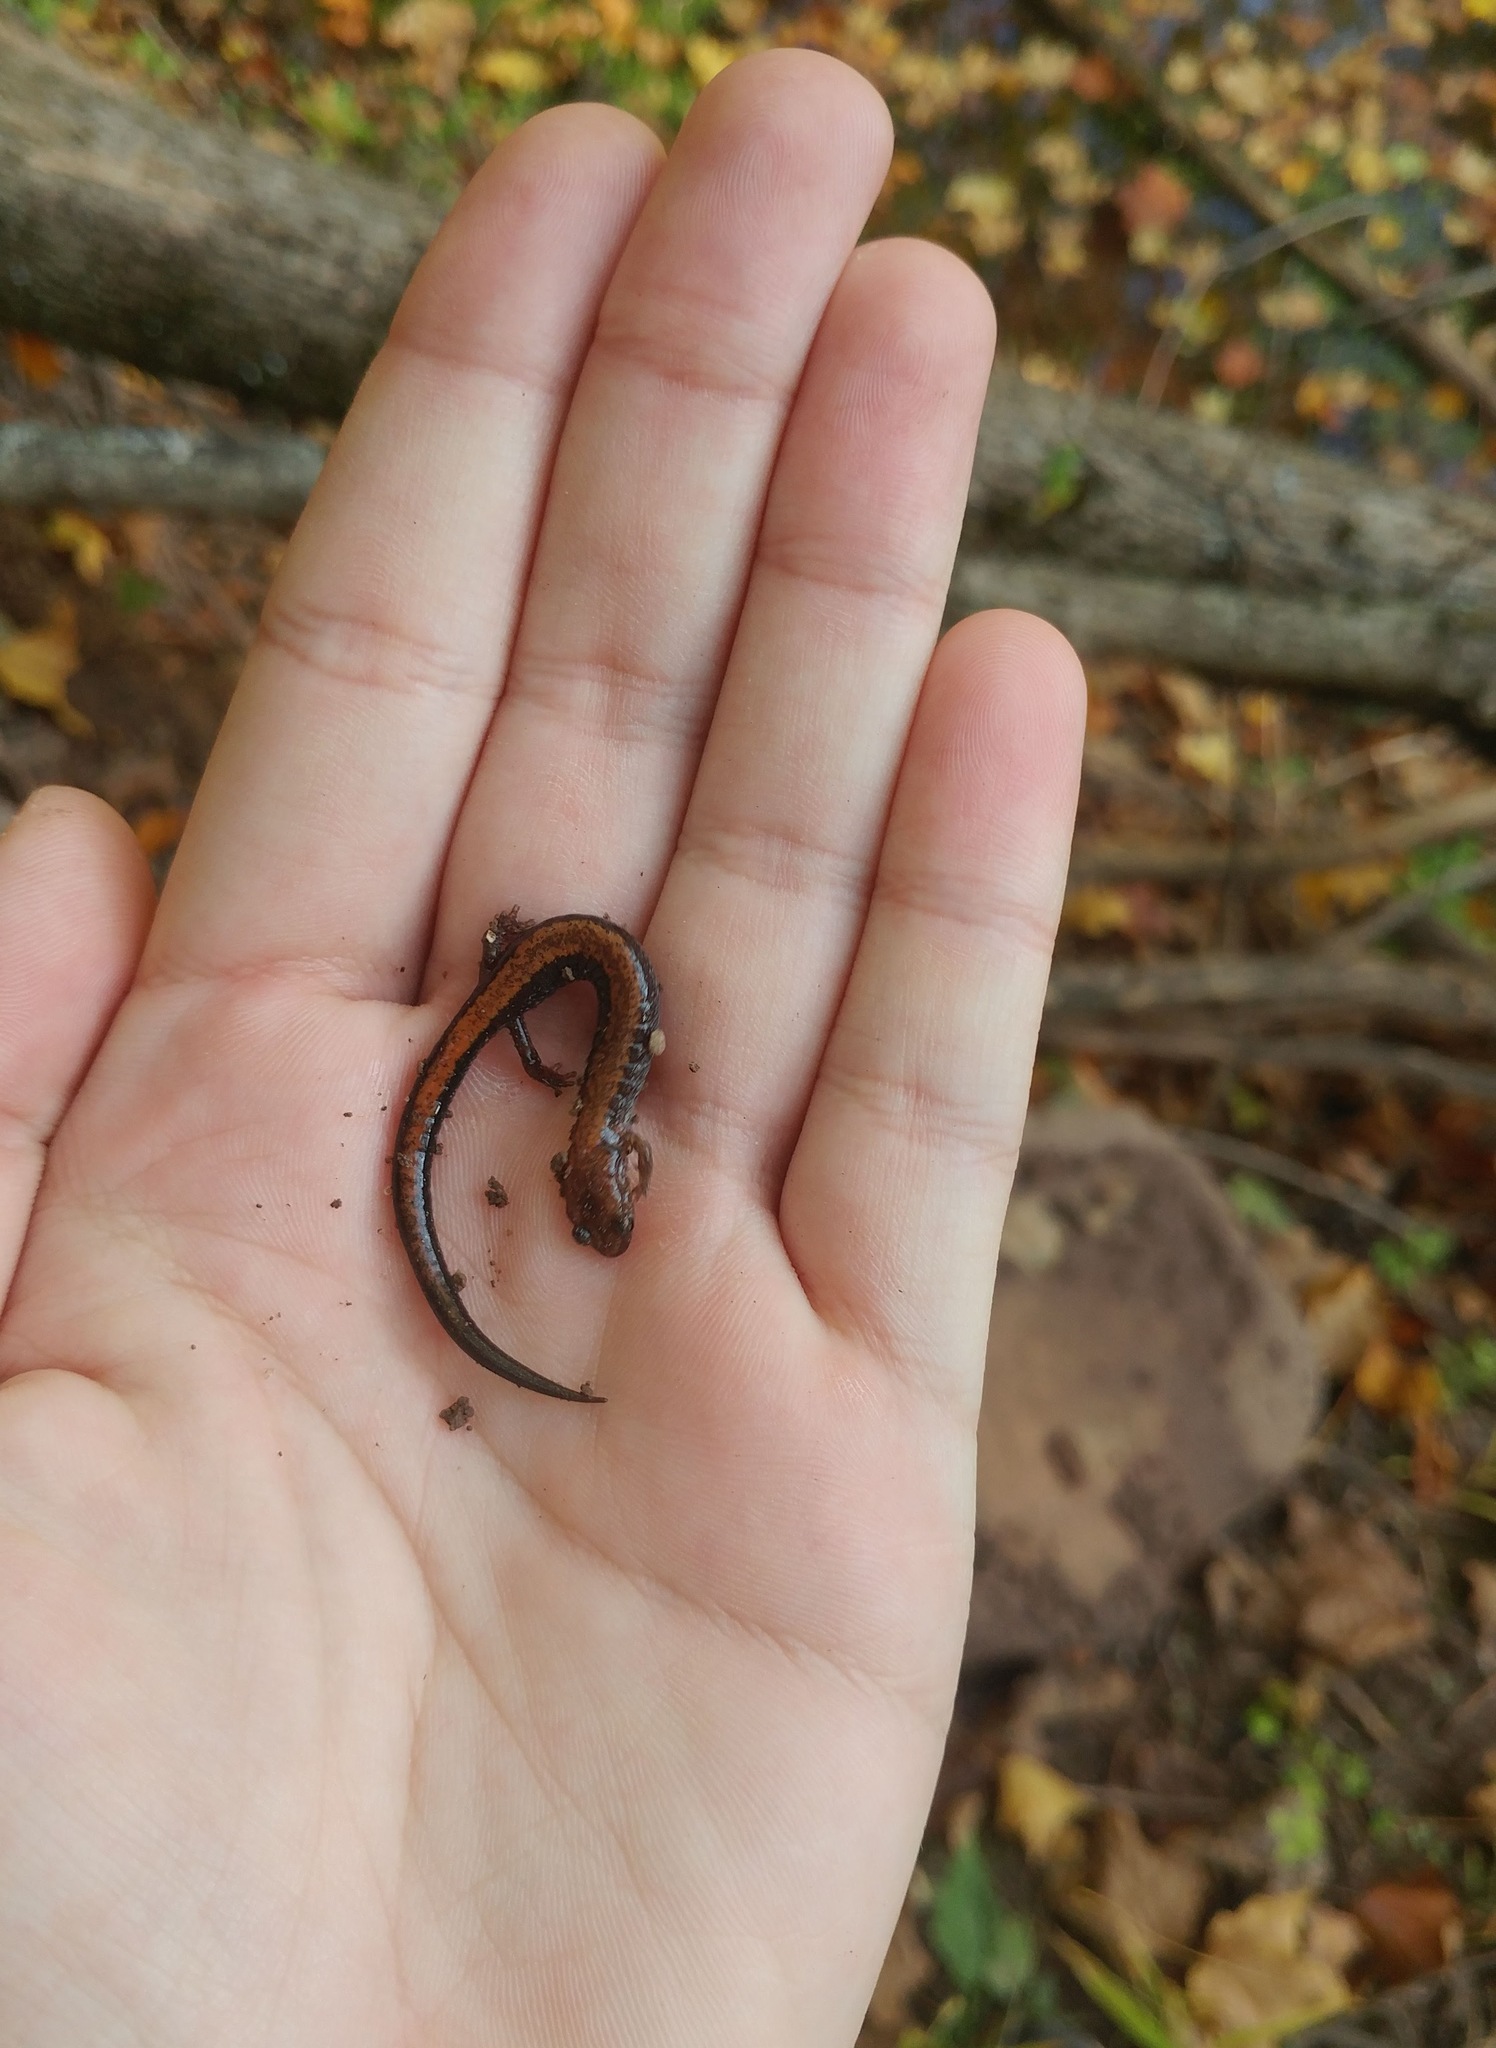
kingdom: Animalia
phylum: Chordata
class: Amphibia
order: Caudata
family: Plethodontidae
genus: Plethodon
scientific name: Plethodon cinereus
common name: Redback salamander
